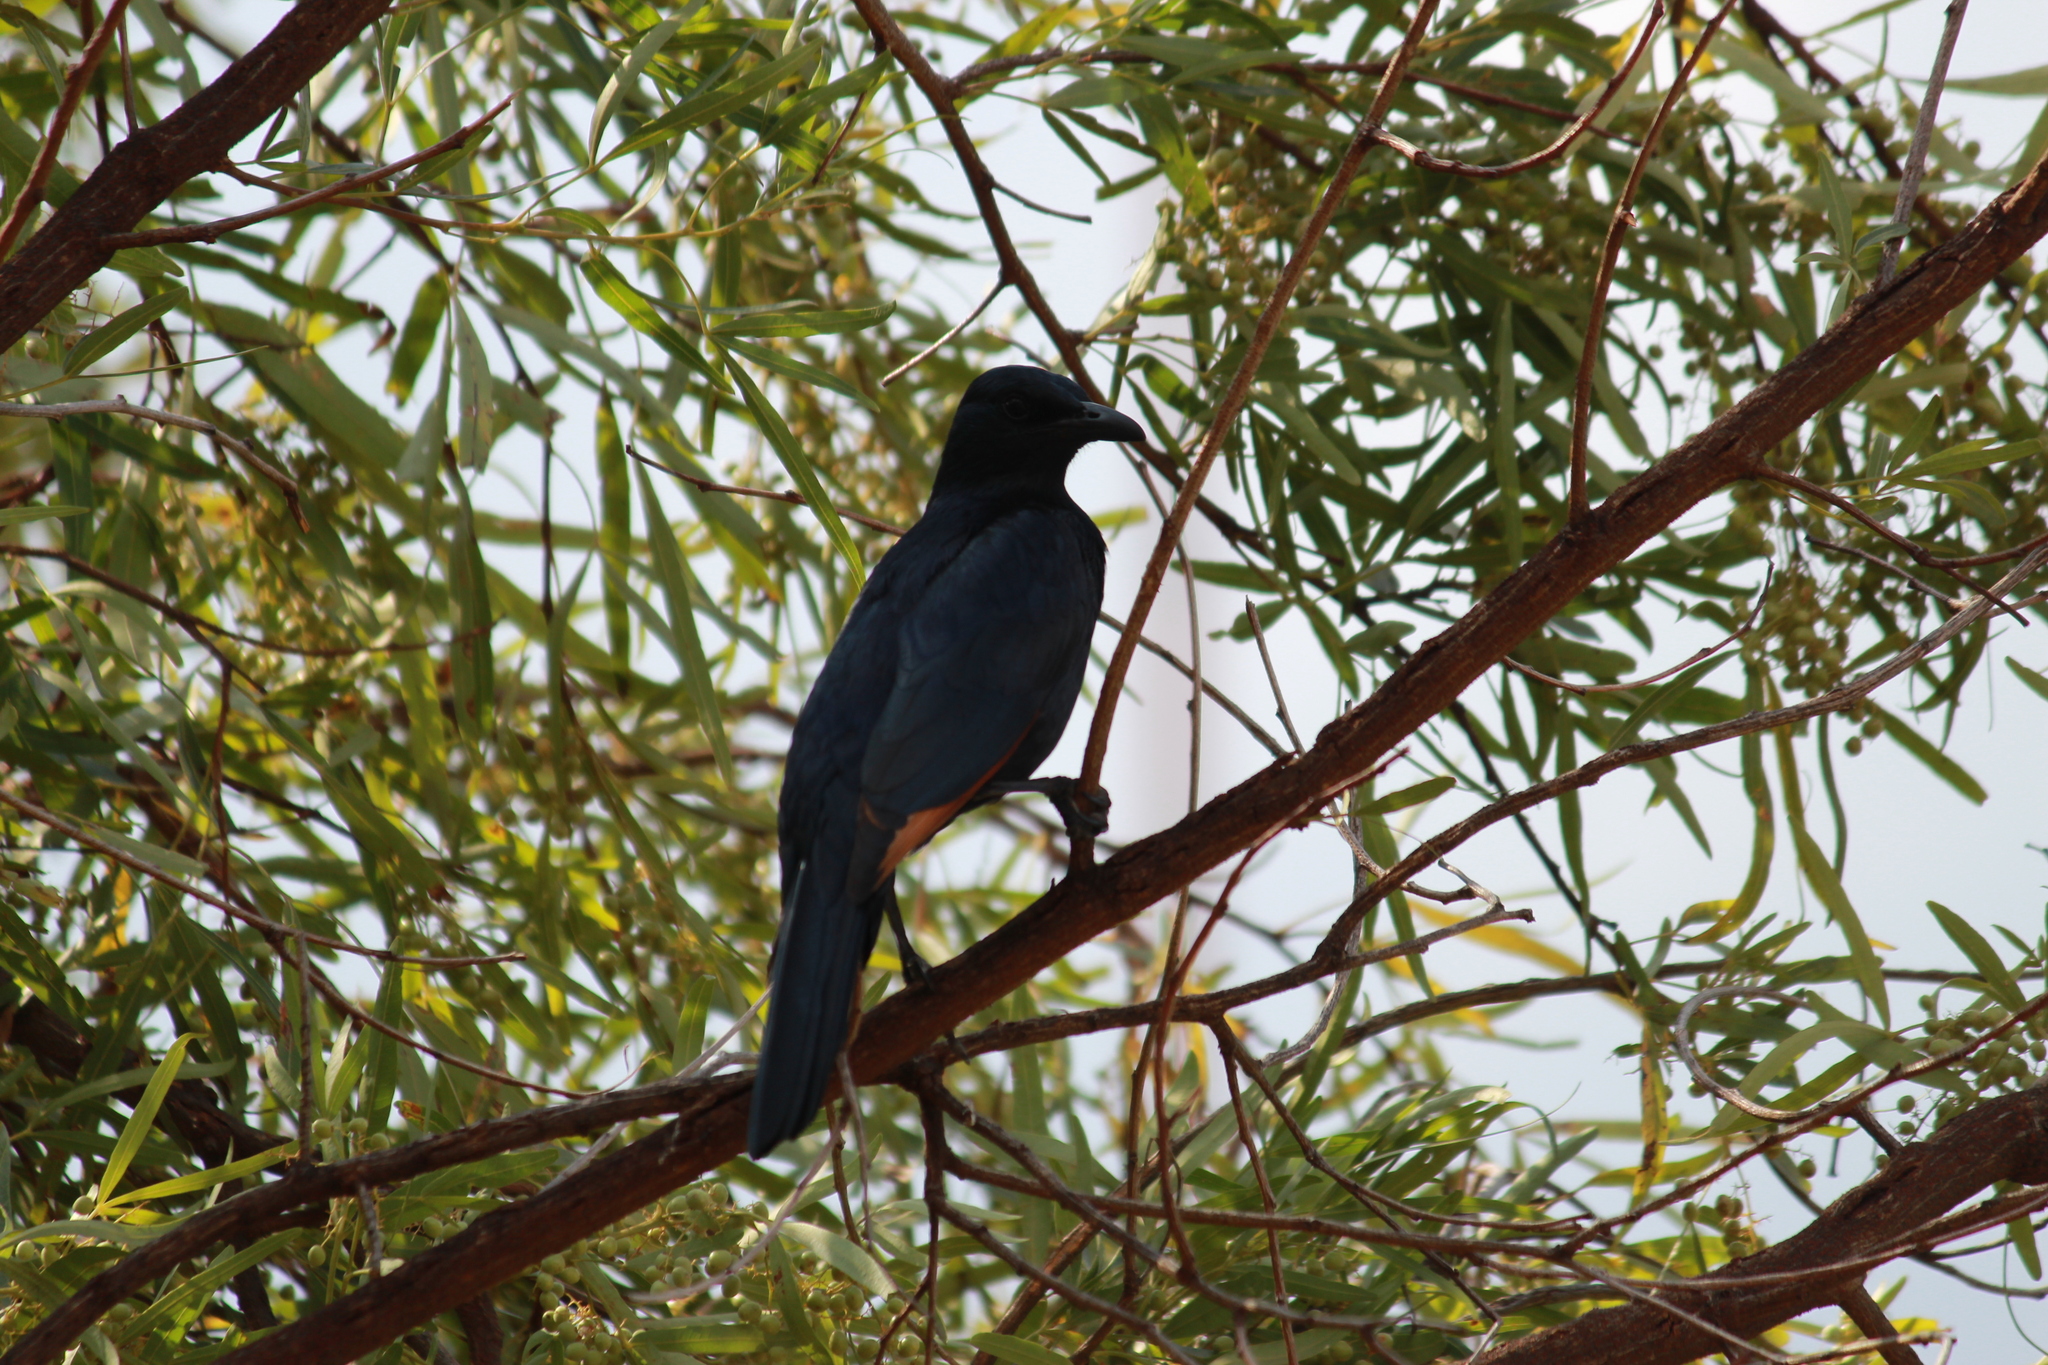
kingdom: Animalia
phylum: Chordata
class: Aves
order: Passeriformes
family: Sturnidae
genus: Onychognathus
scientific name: Onychognathus morio
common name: Red-winged starling
